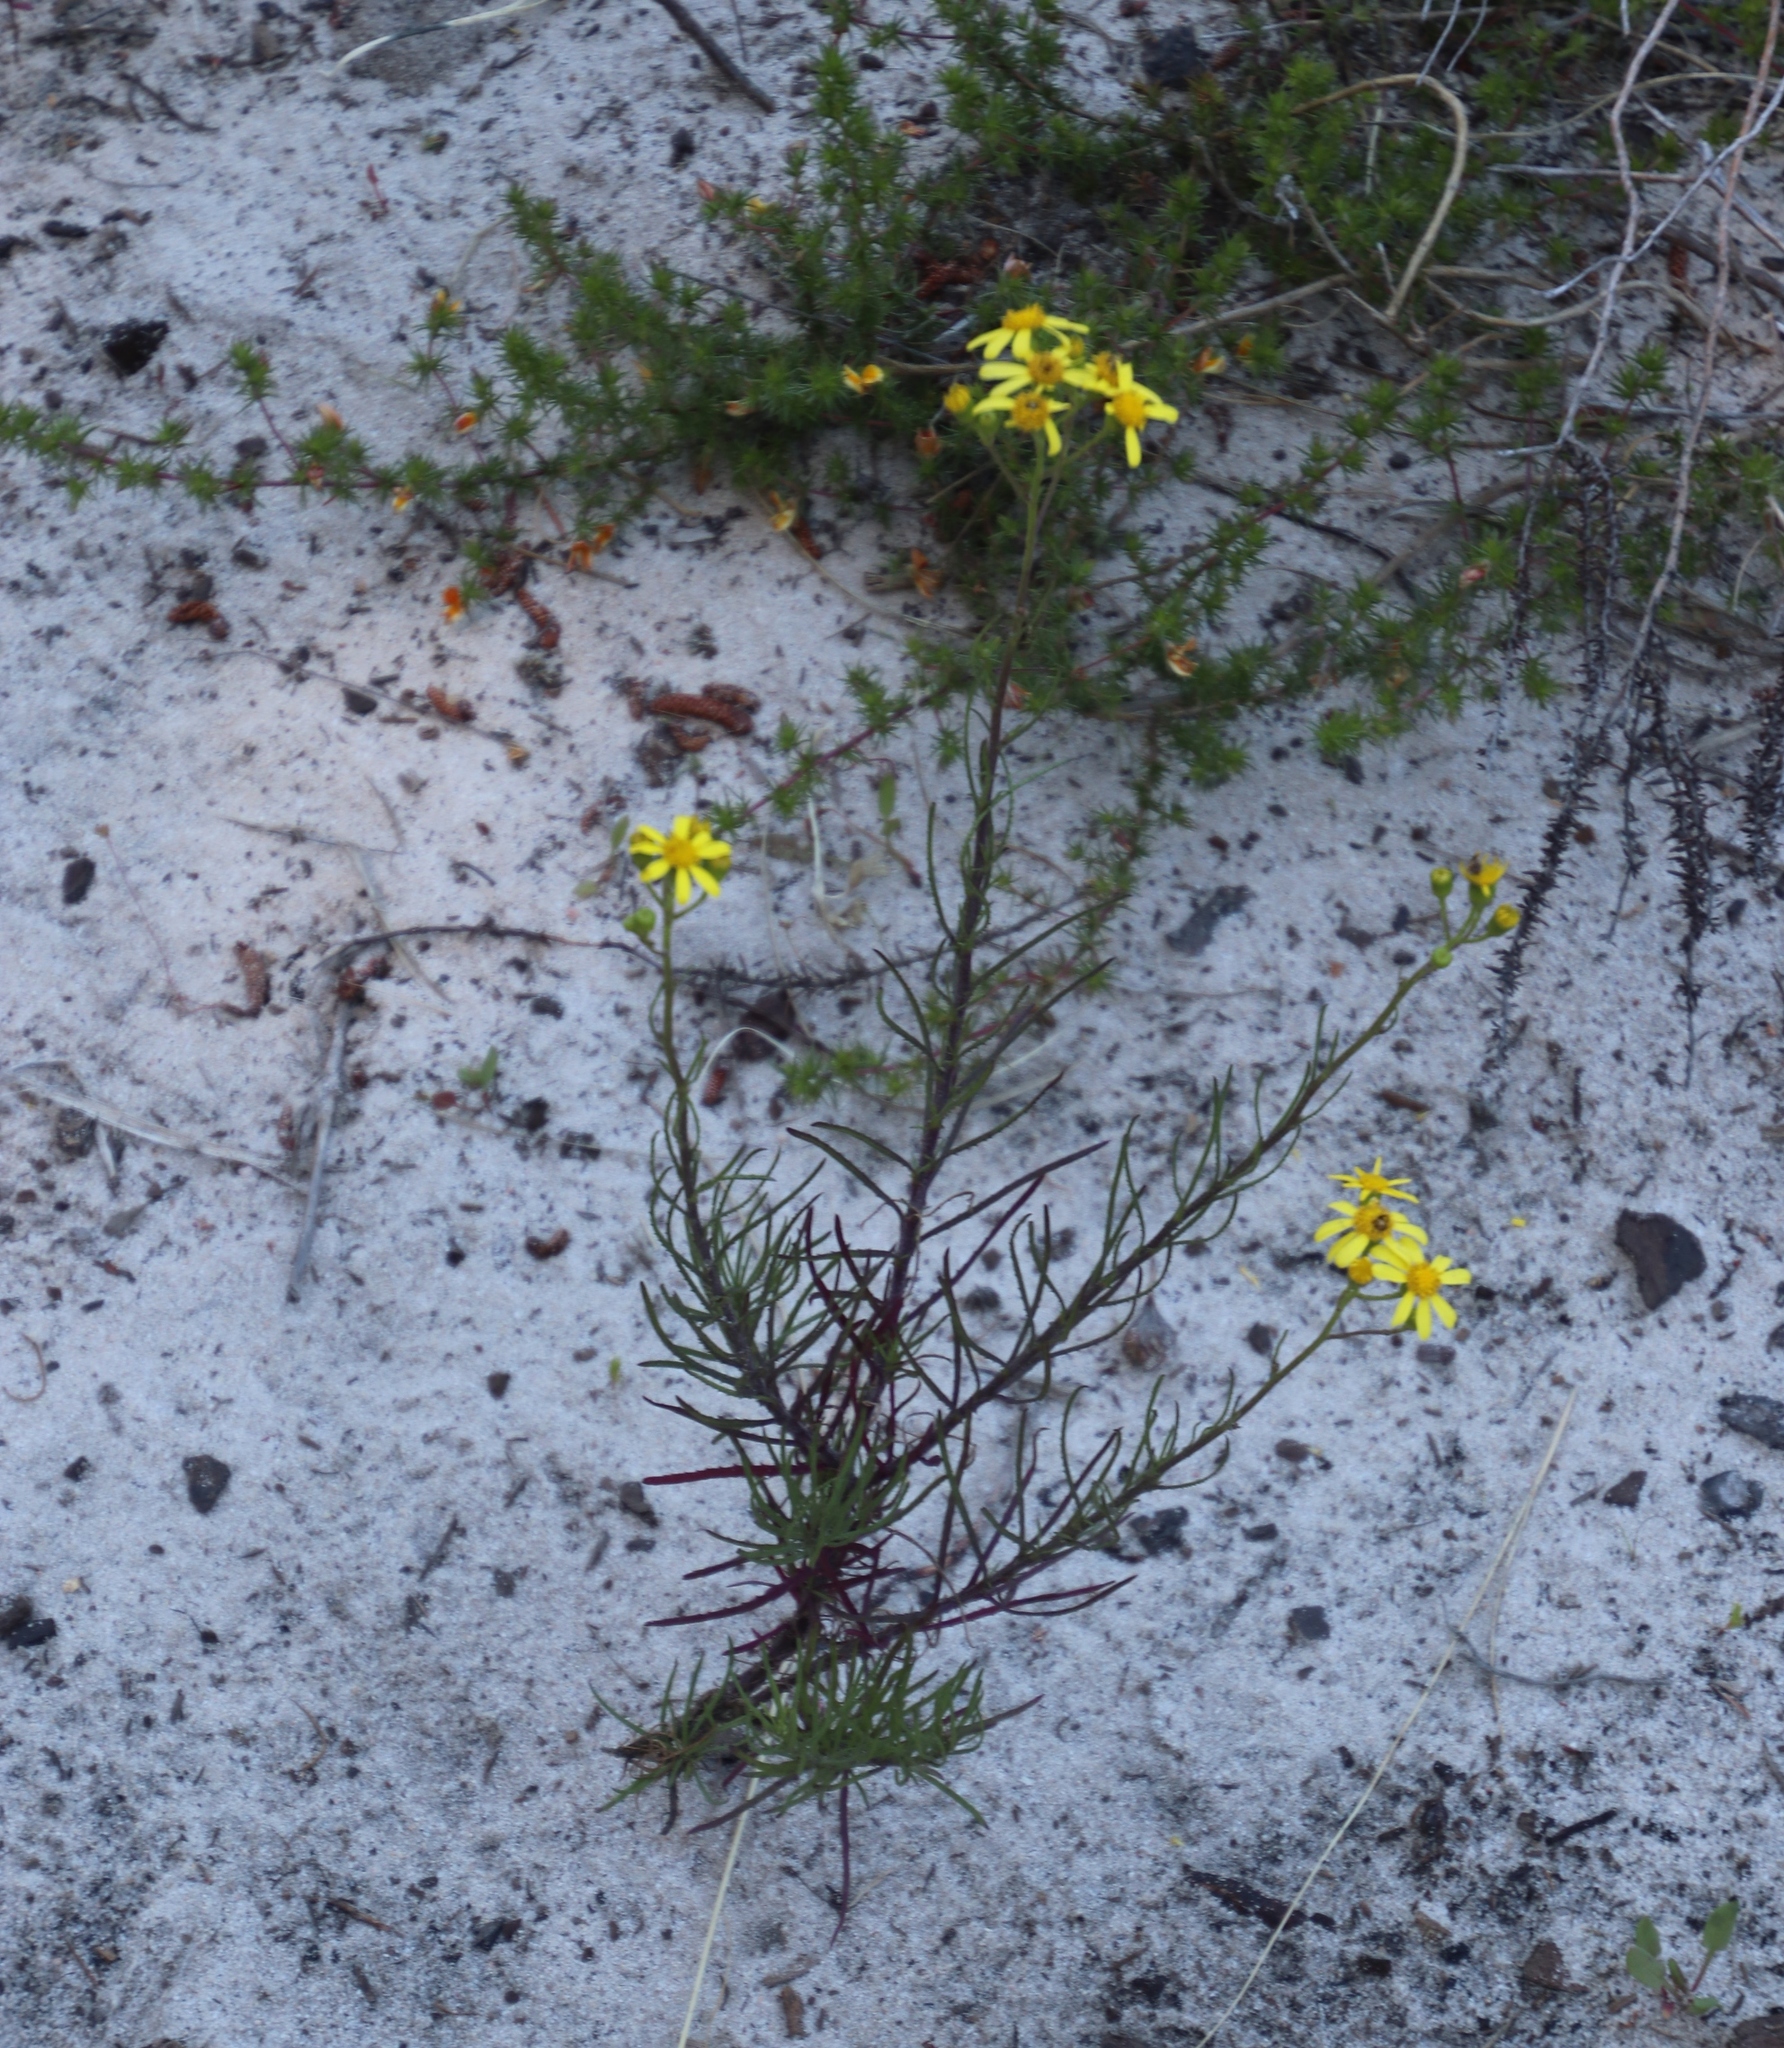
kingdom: Plantae
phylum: Tracheophyta
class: Magnoliopsida
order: Asterales
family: Asteraceae
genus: Senecio
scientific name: Senecio burchellii
